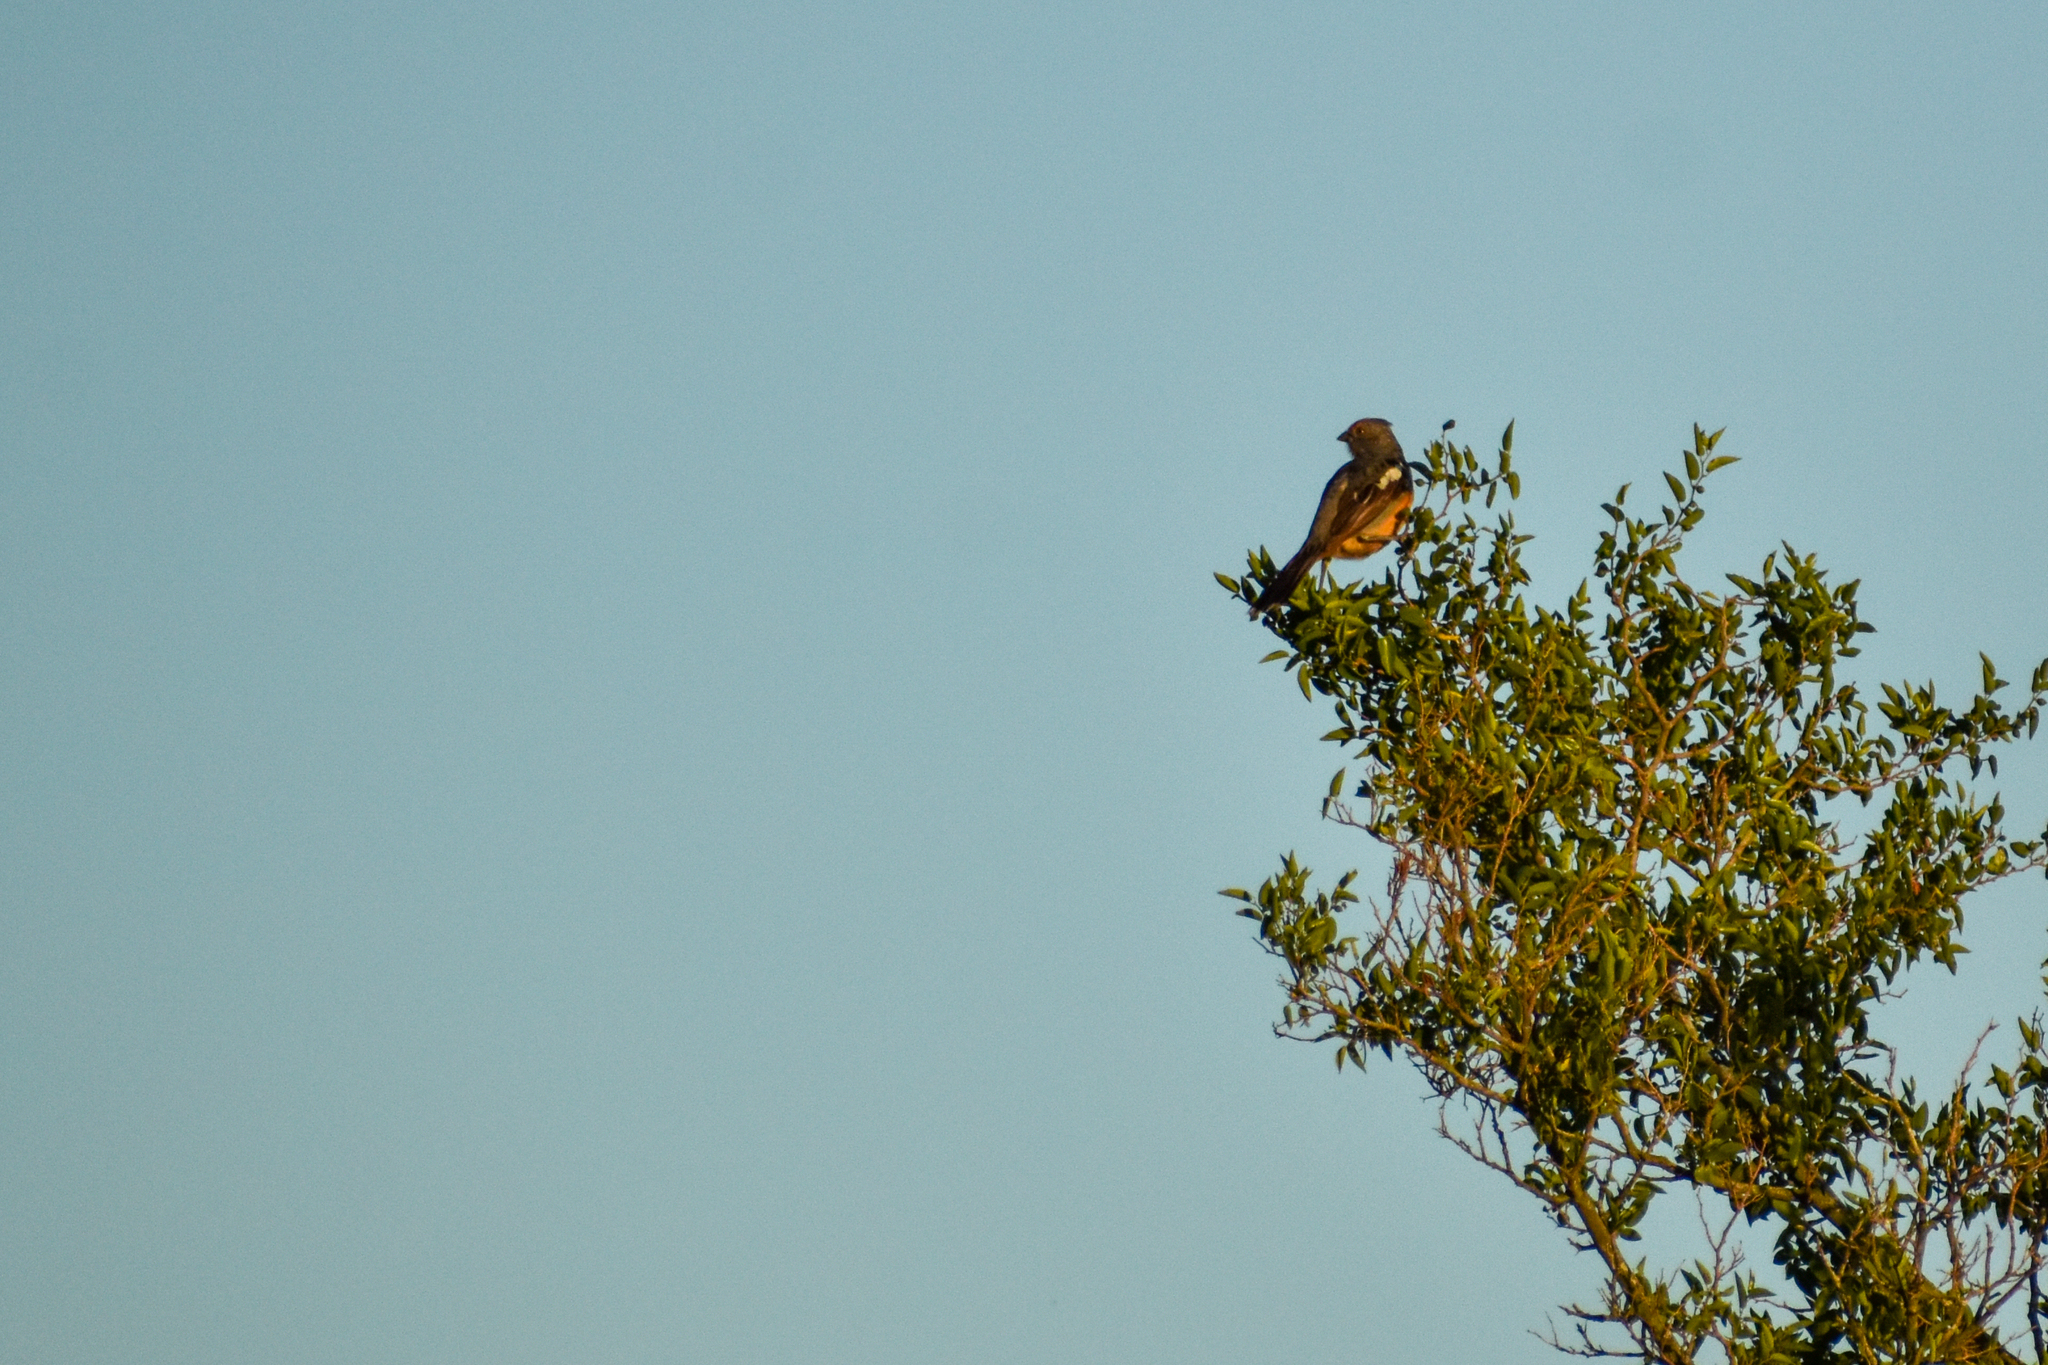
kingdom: Animalia
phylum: Chordata
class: Aves
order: Passeriformes
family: Cotingidae
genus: Phytotoma
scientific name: Phytotoma rutila
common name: White-tipped plantcutter
